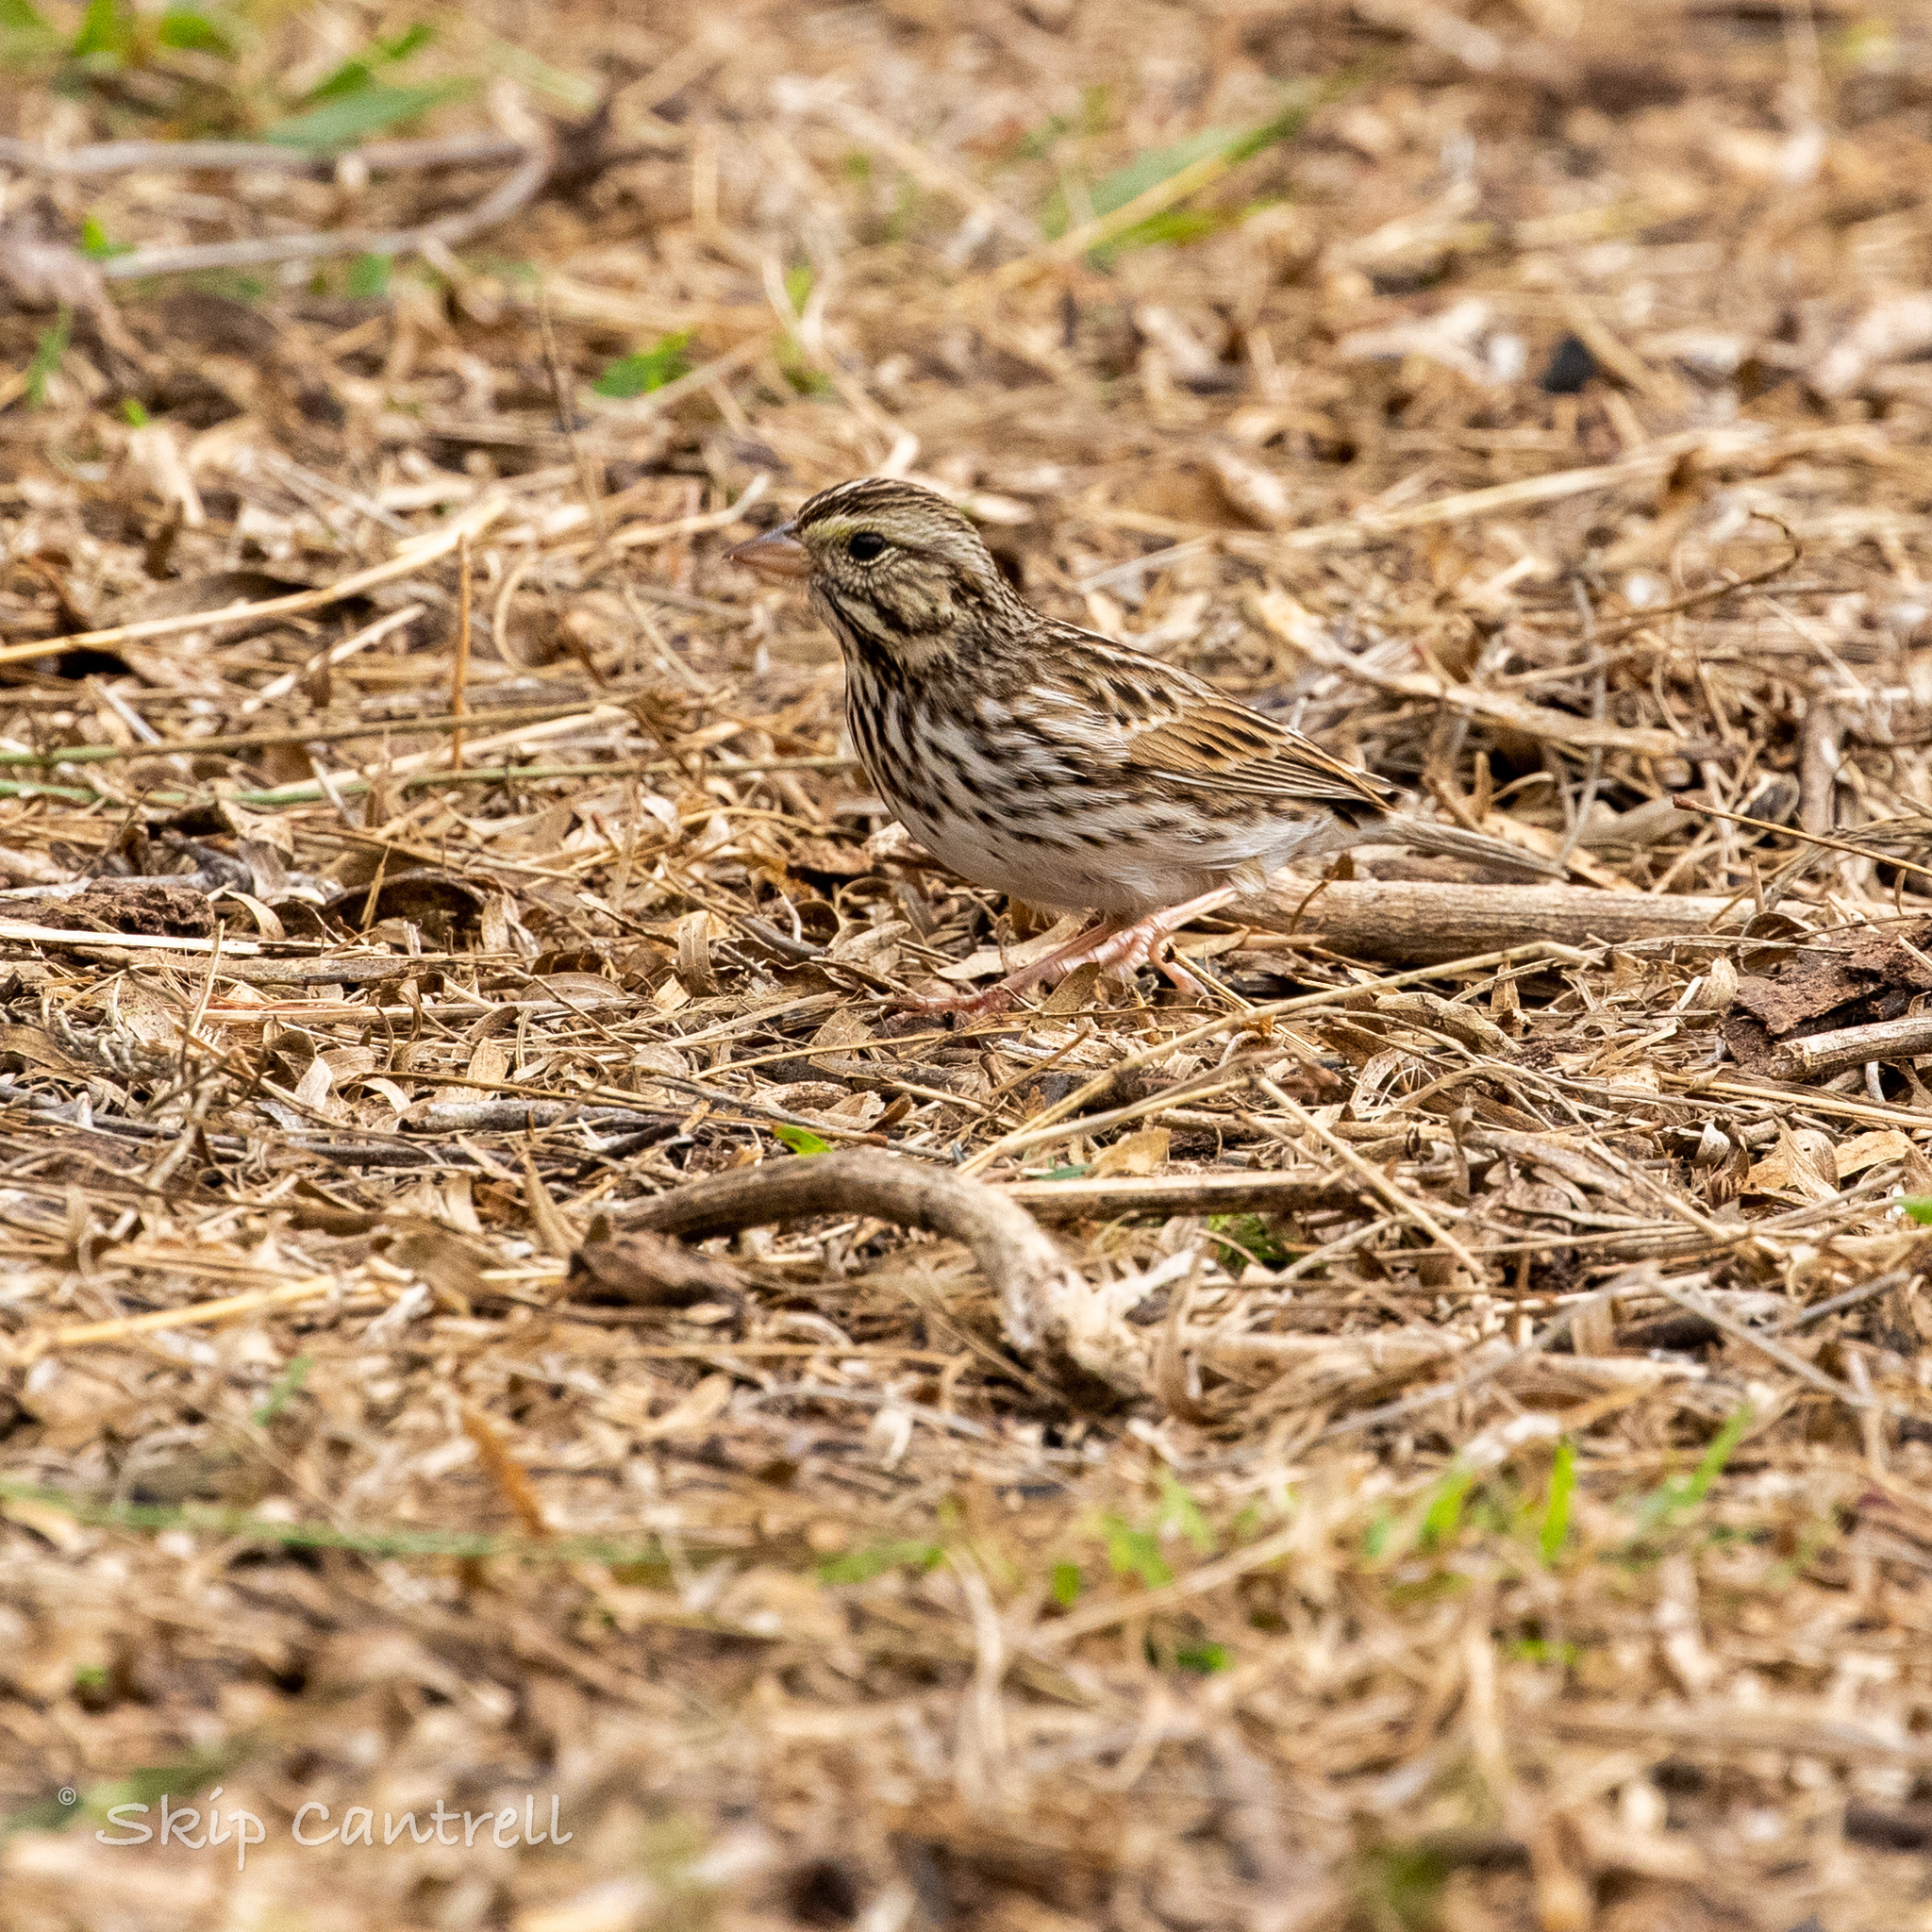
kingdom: Animalia
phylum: Chordata
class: Aves
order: Passeriformes
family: Passerellidae
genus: Passerculus
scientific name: Passerculus sandwichensis
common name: Savannah sparrow
